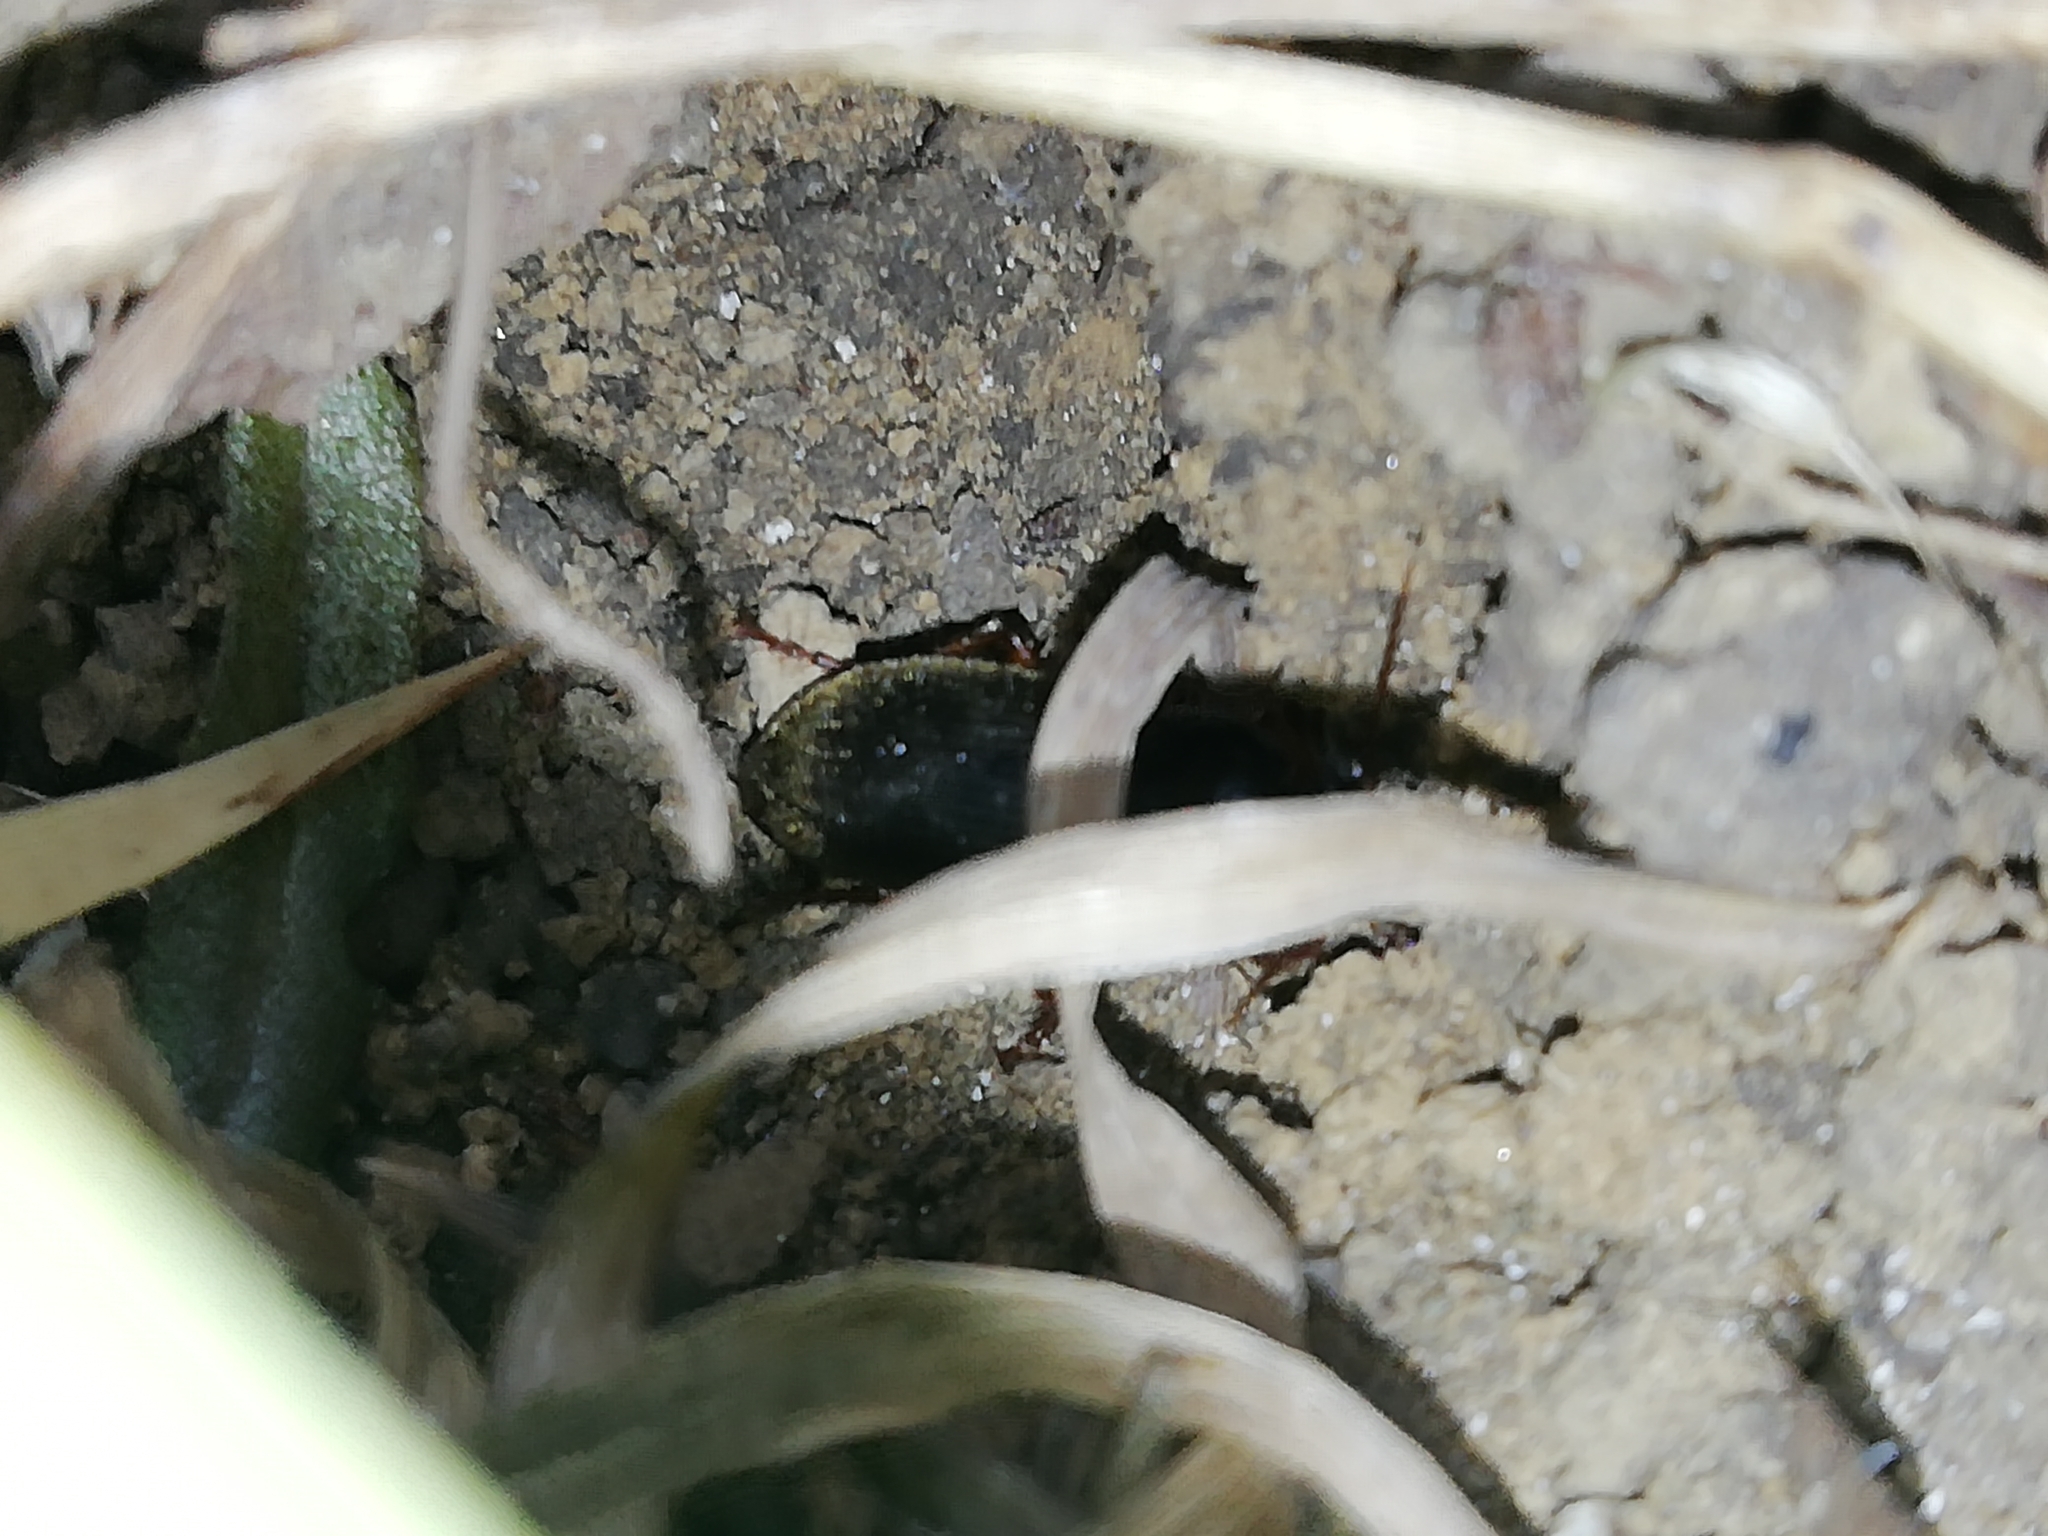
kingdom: Animalia
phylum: Arthropoda
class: Insecta
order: Coleoptera
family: Carabidae
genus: Harpalus
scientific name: Harpalus rufipes
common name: Strawberry harp ground beetle
